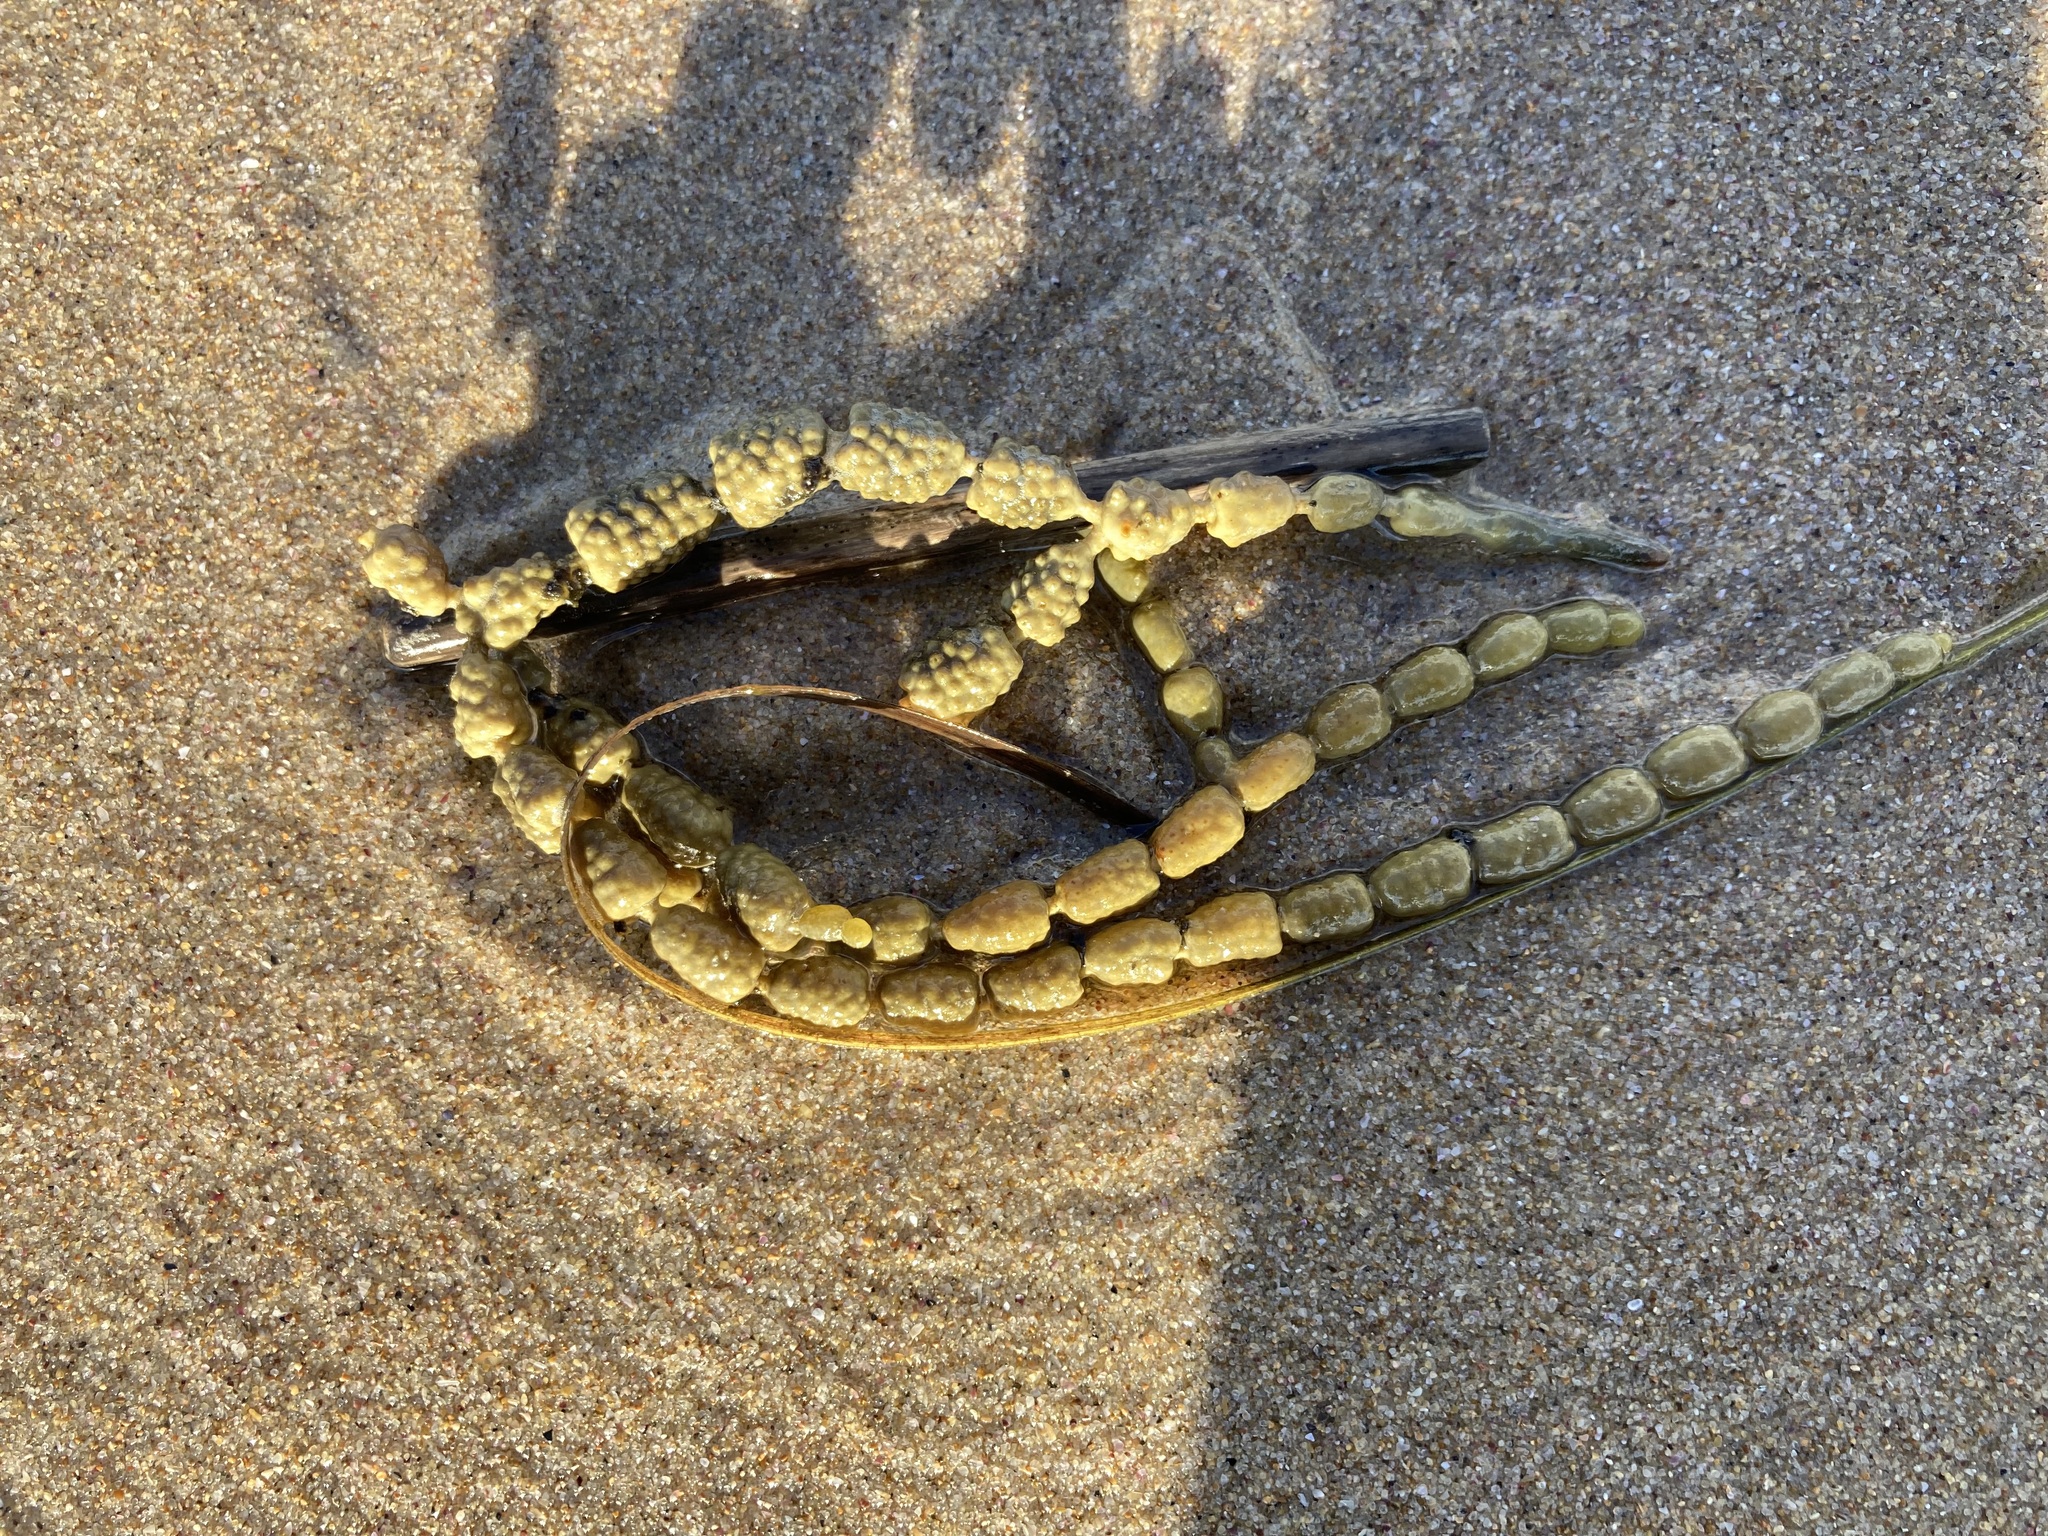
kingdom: Chromista
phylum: Ochrophyta
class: Phaeophyceae
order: Fucales
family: Hormosiraceae
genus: Hormosira
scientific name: Hormosira banksii
